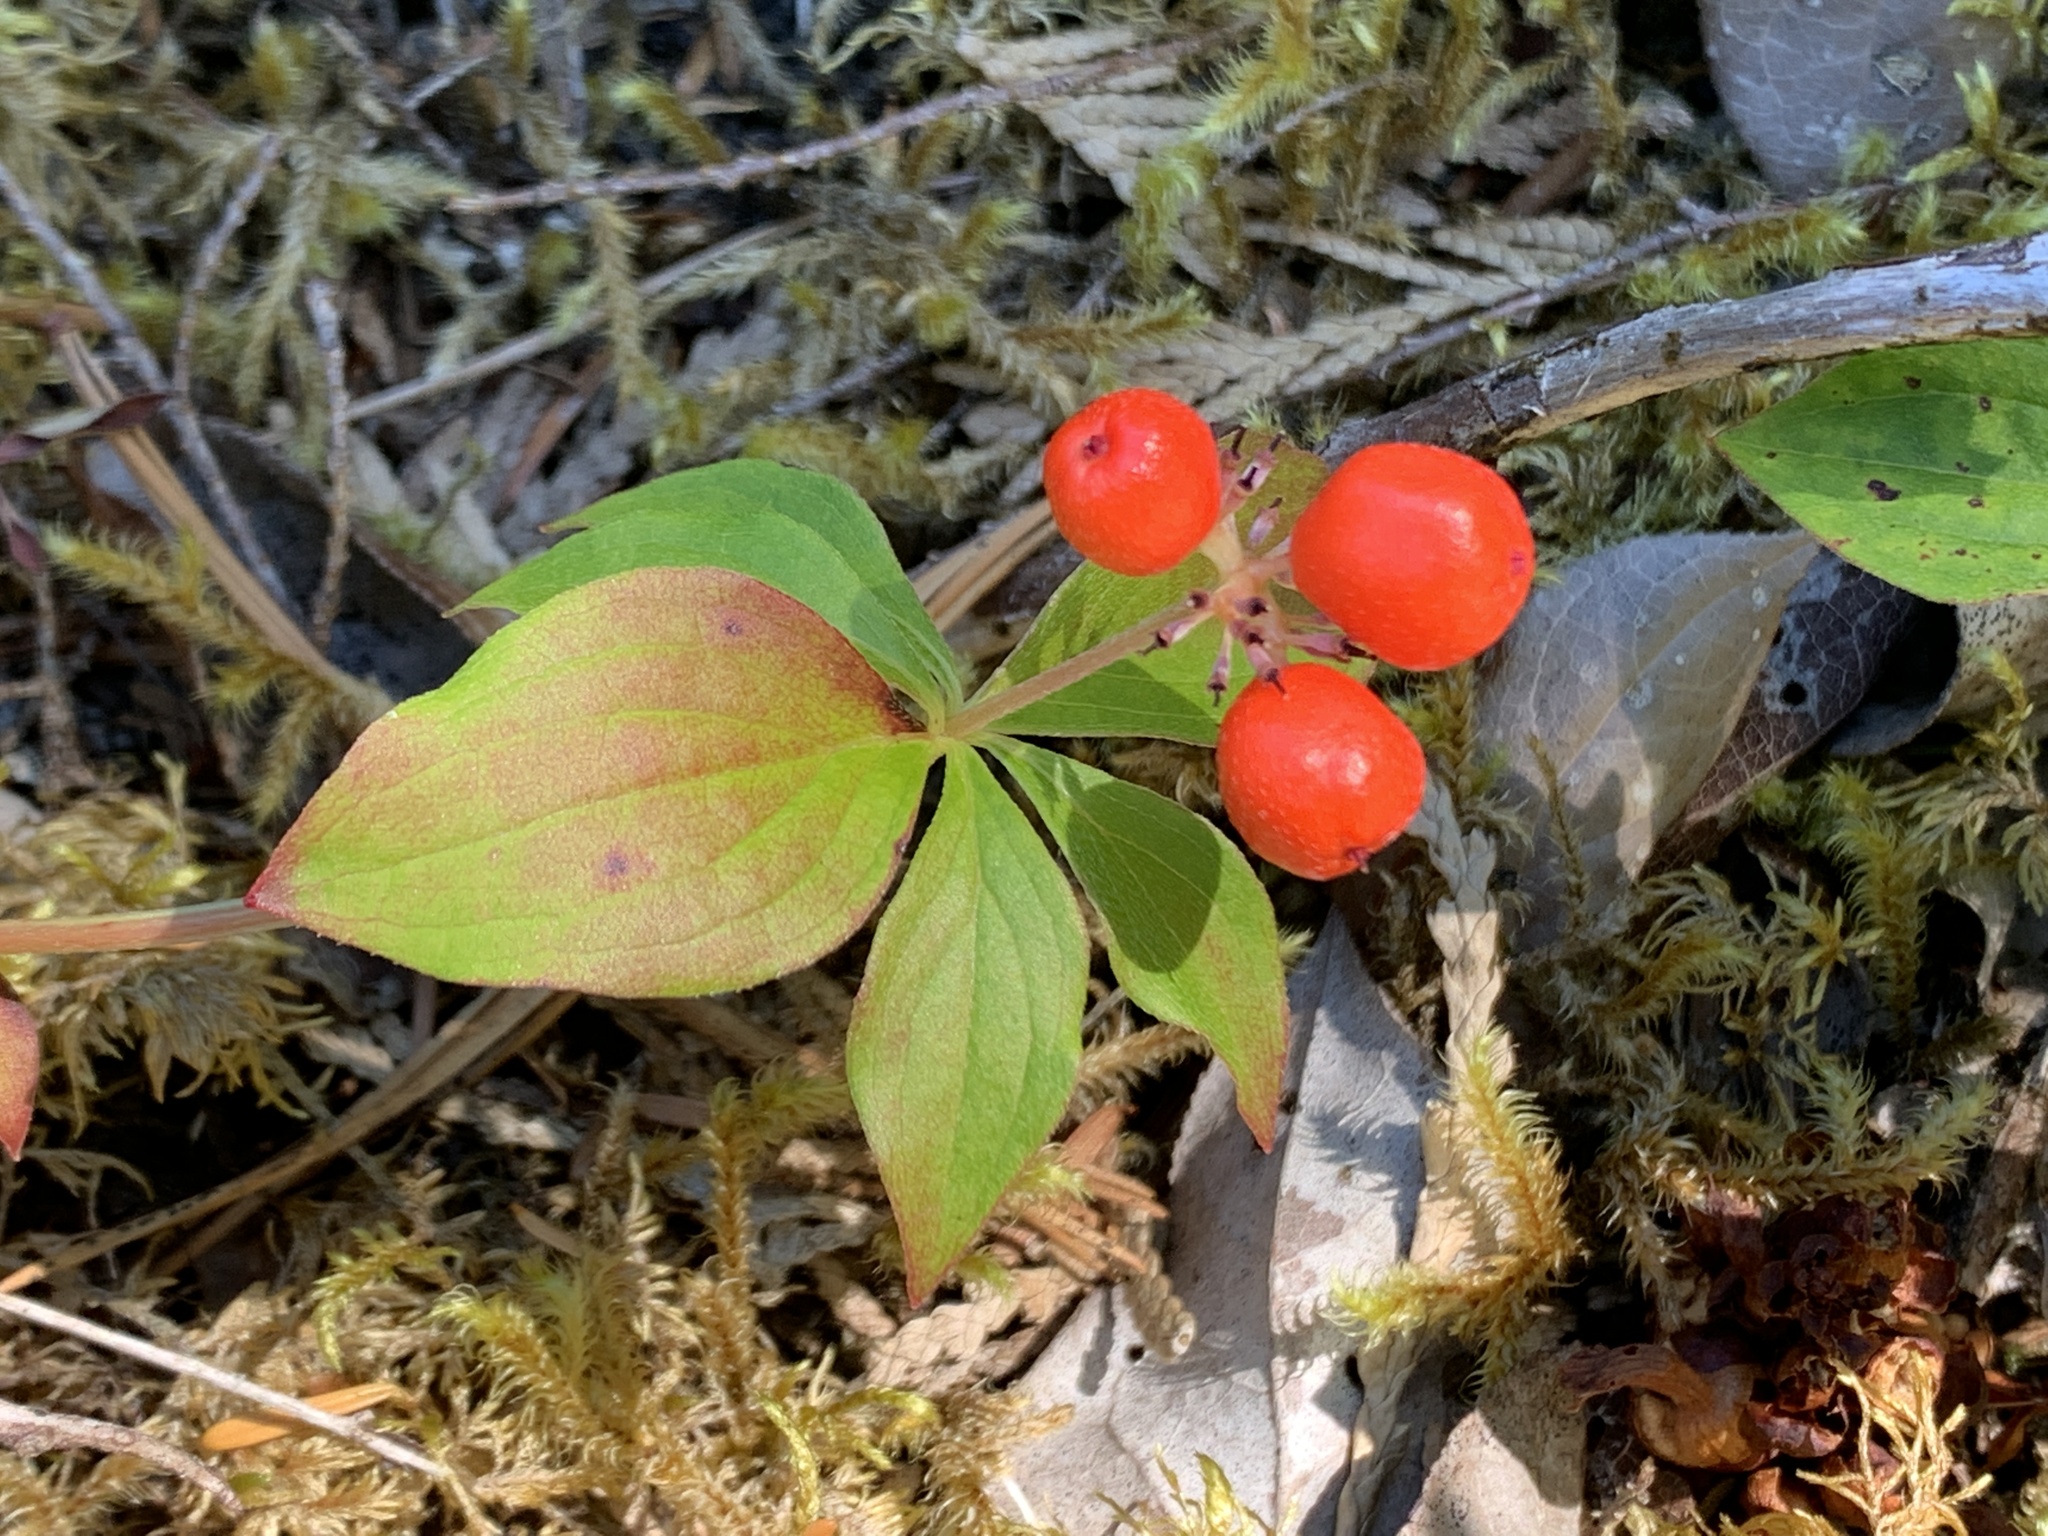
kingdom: Plantae
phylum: Tracheophyta
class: Magnoliopsida
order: Cornales
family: Cornaceae
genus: Cornus
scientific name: Cornus unalaschkensis
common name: Alaska bunchberry
